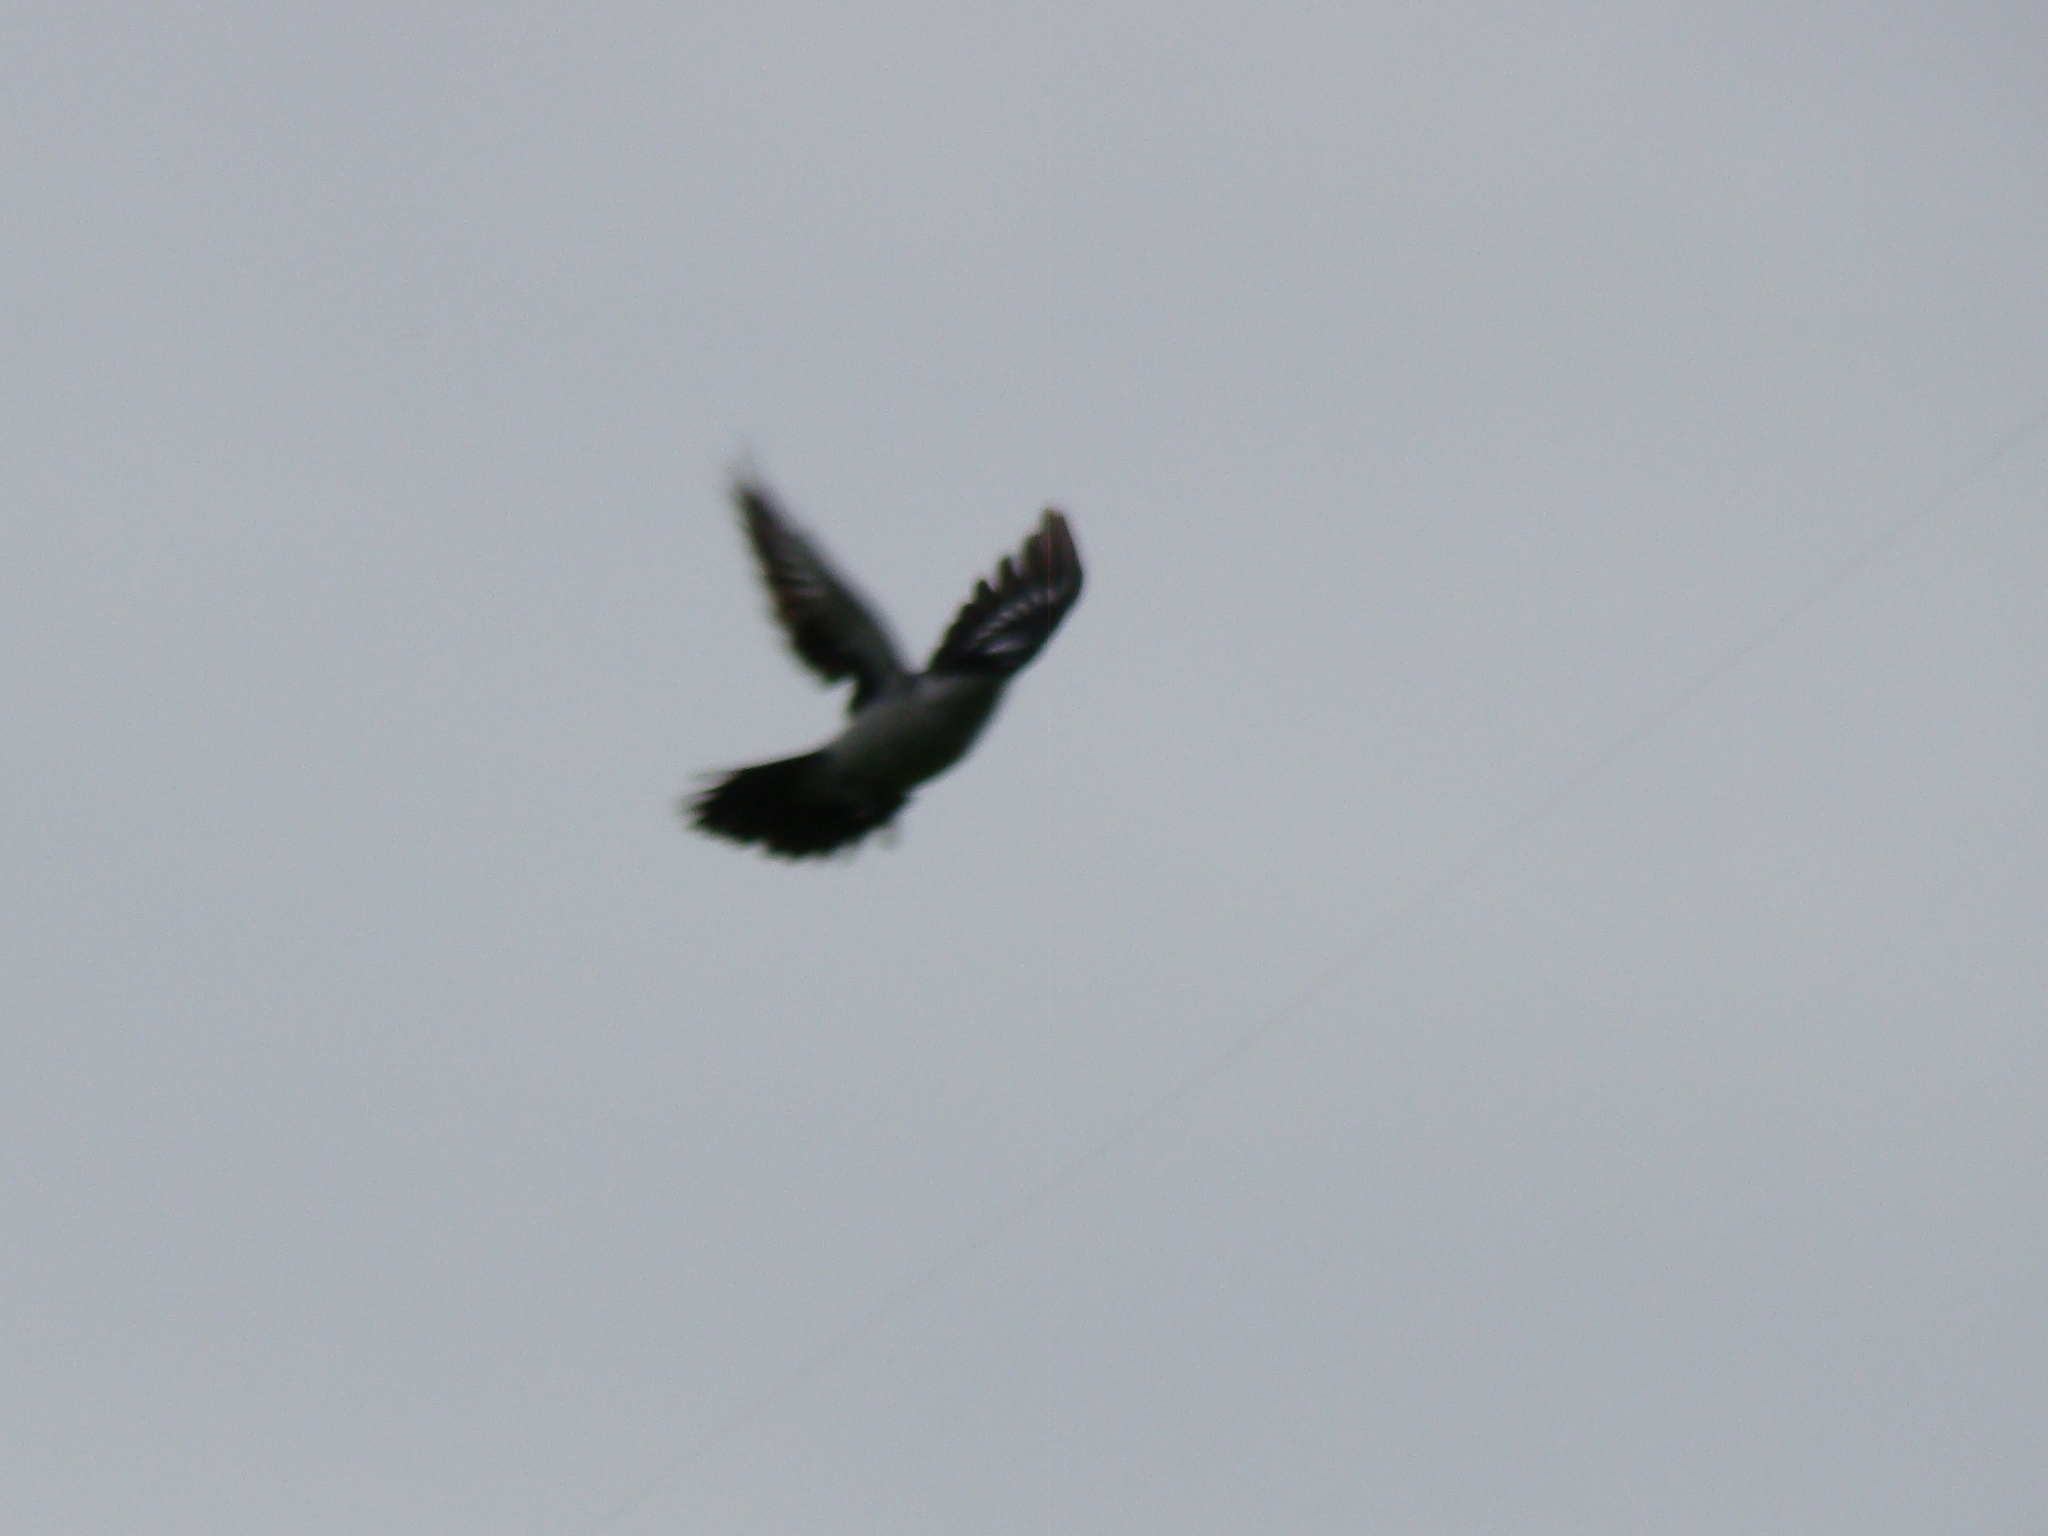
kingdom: Animalia
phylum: Chordata
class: Aves
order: Passeriformes
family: Campephagidae
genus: Lalage
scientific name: Lalage leucopyga
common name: Long-tailed triller
